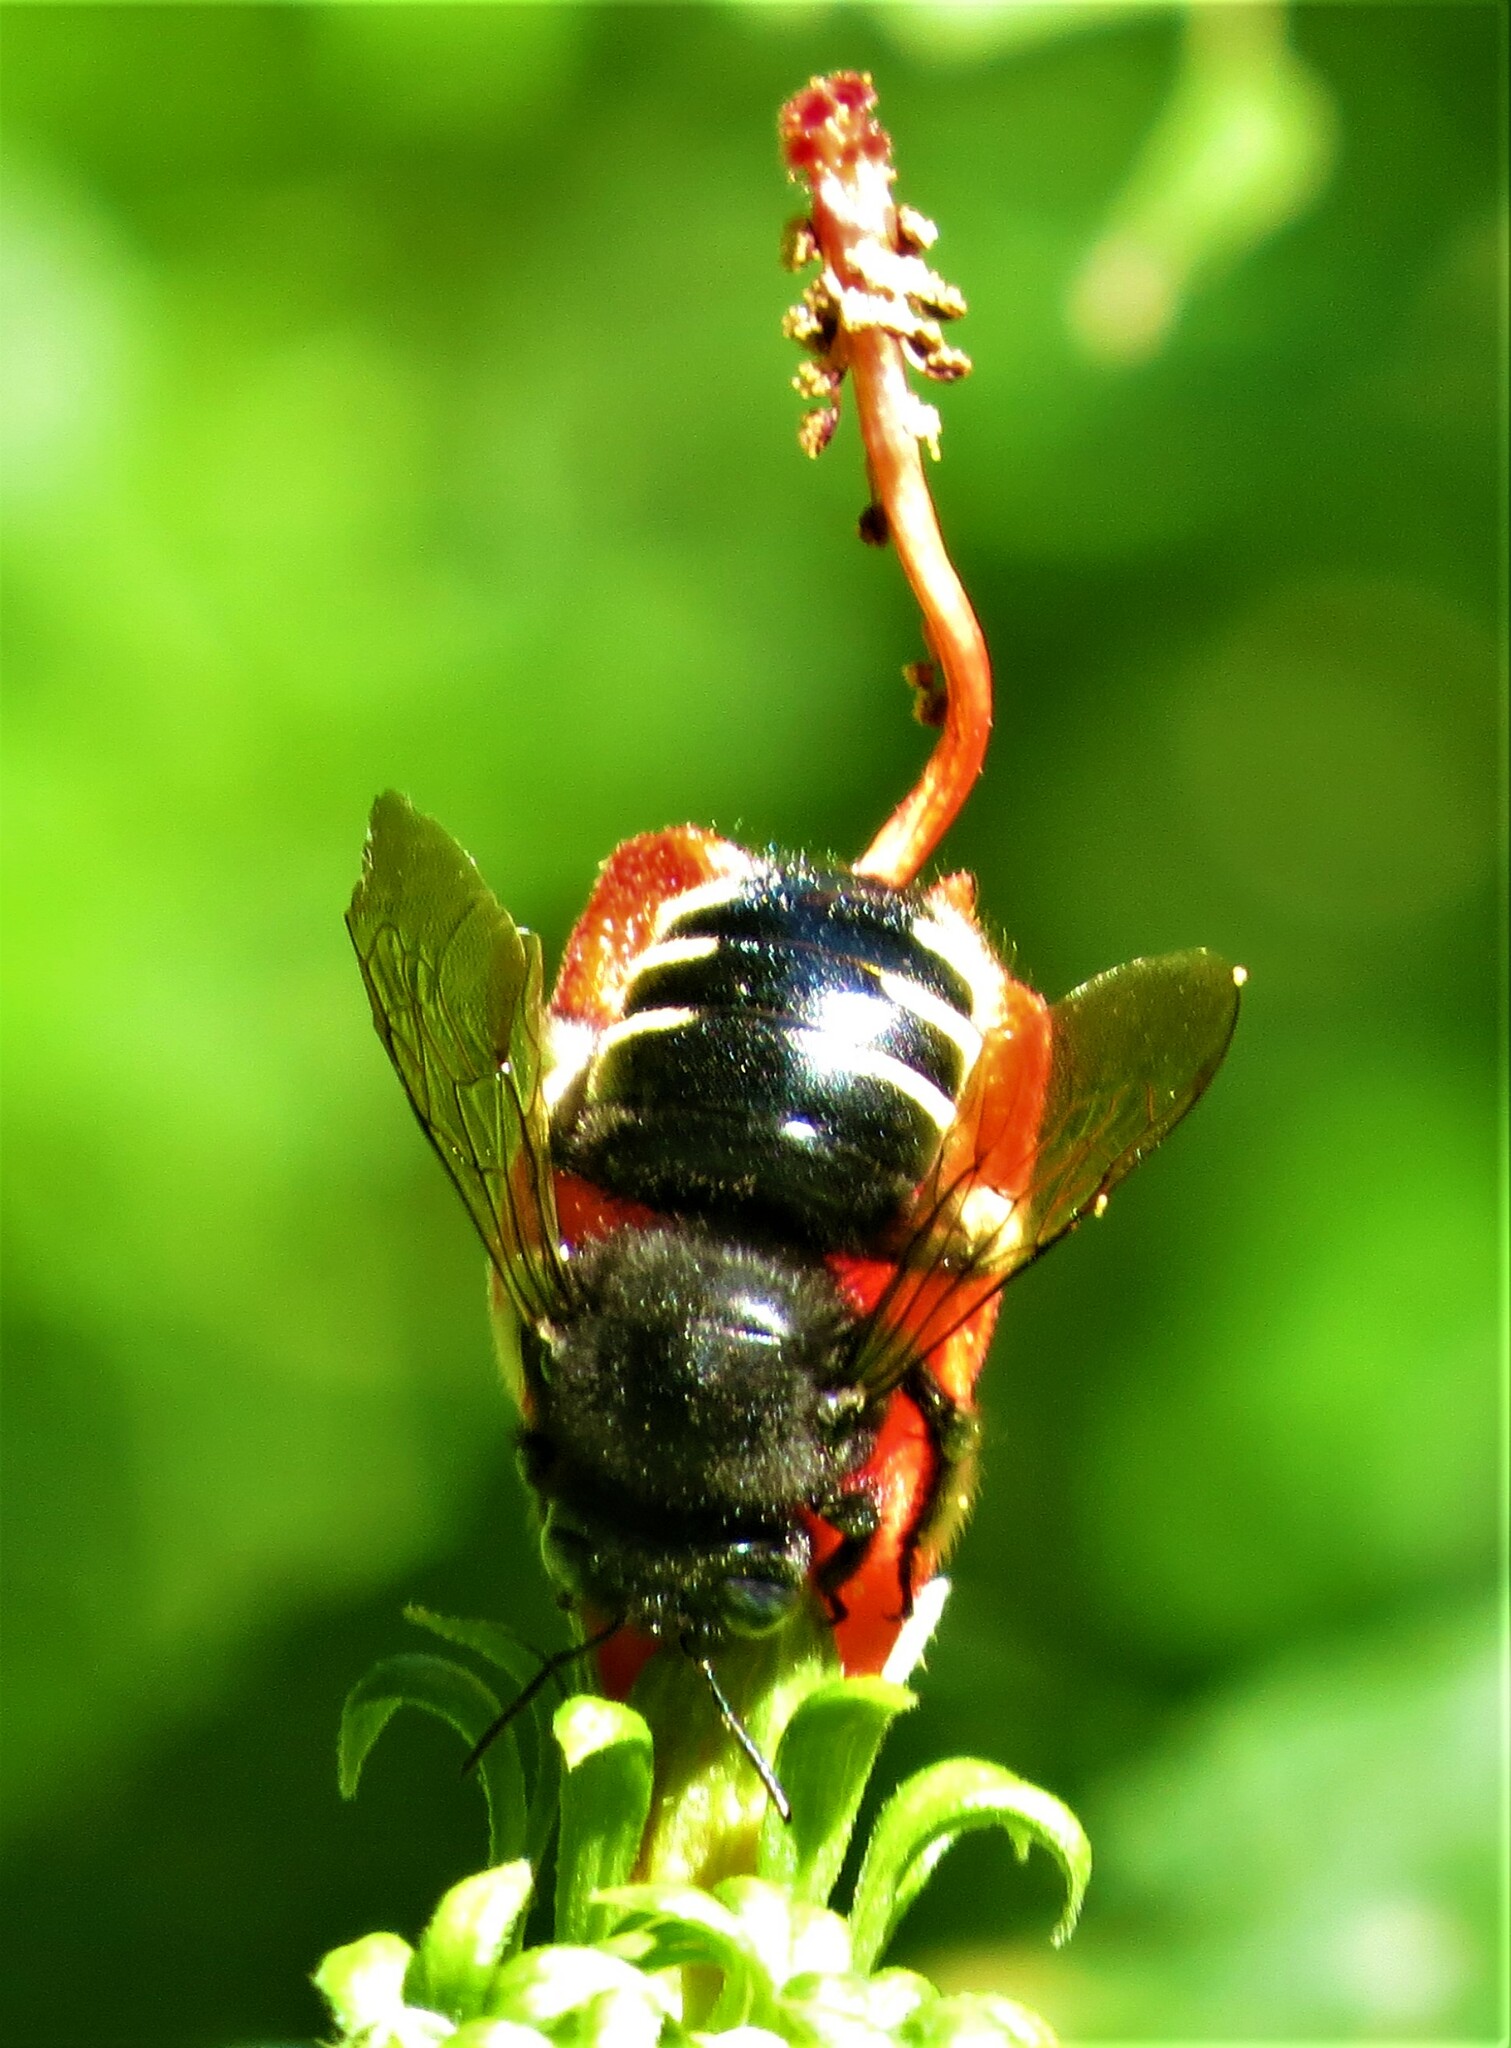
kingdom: Animalia
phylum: Arthropoda
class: Insecta
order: Hymenoptera
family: Apidae
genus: Xylocopa
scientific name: Xylocopa tabaniformis
